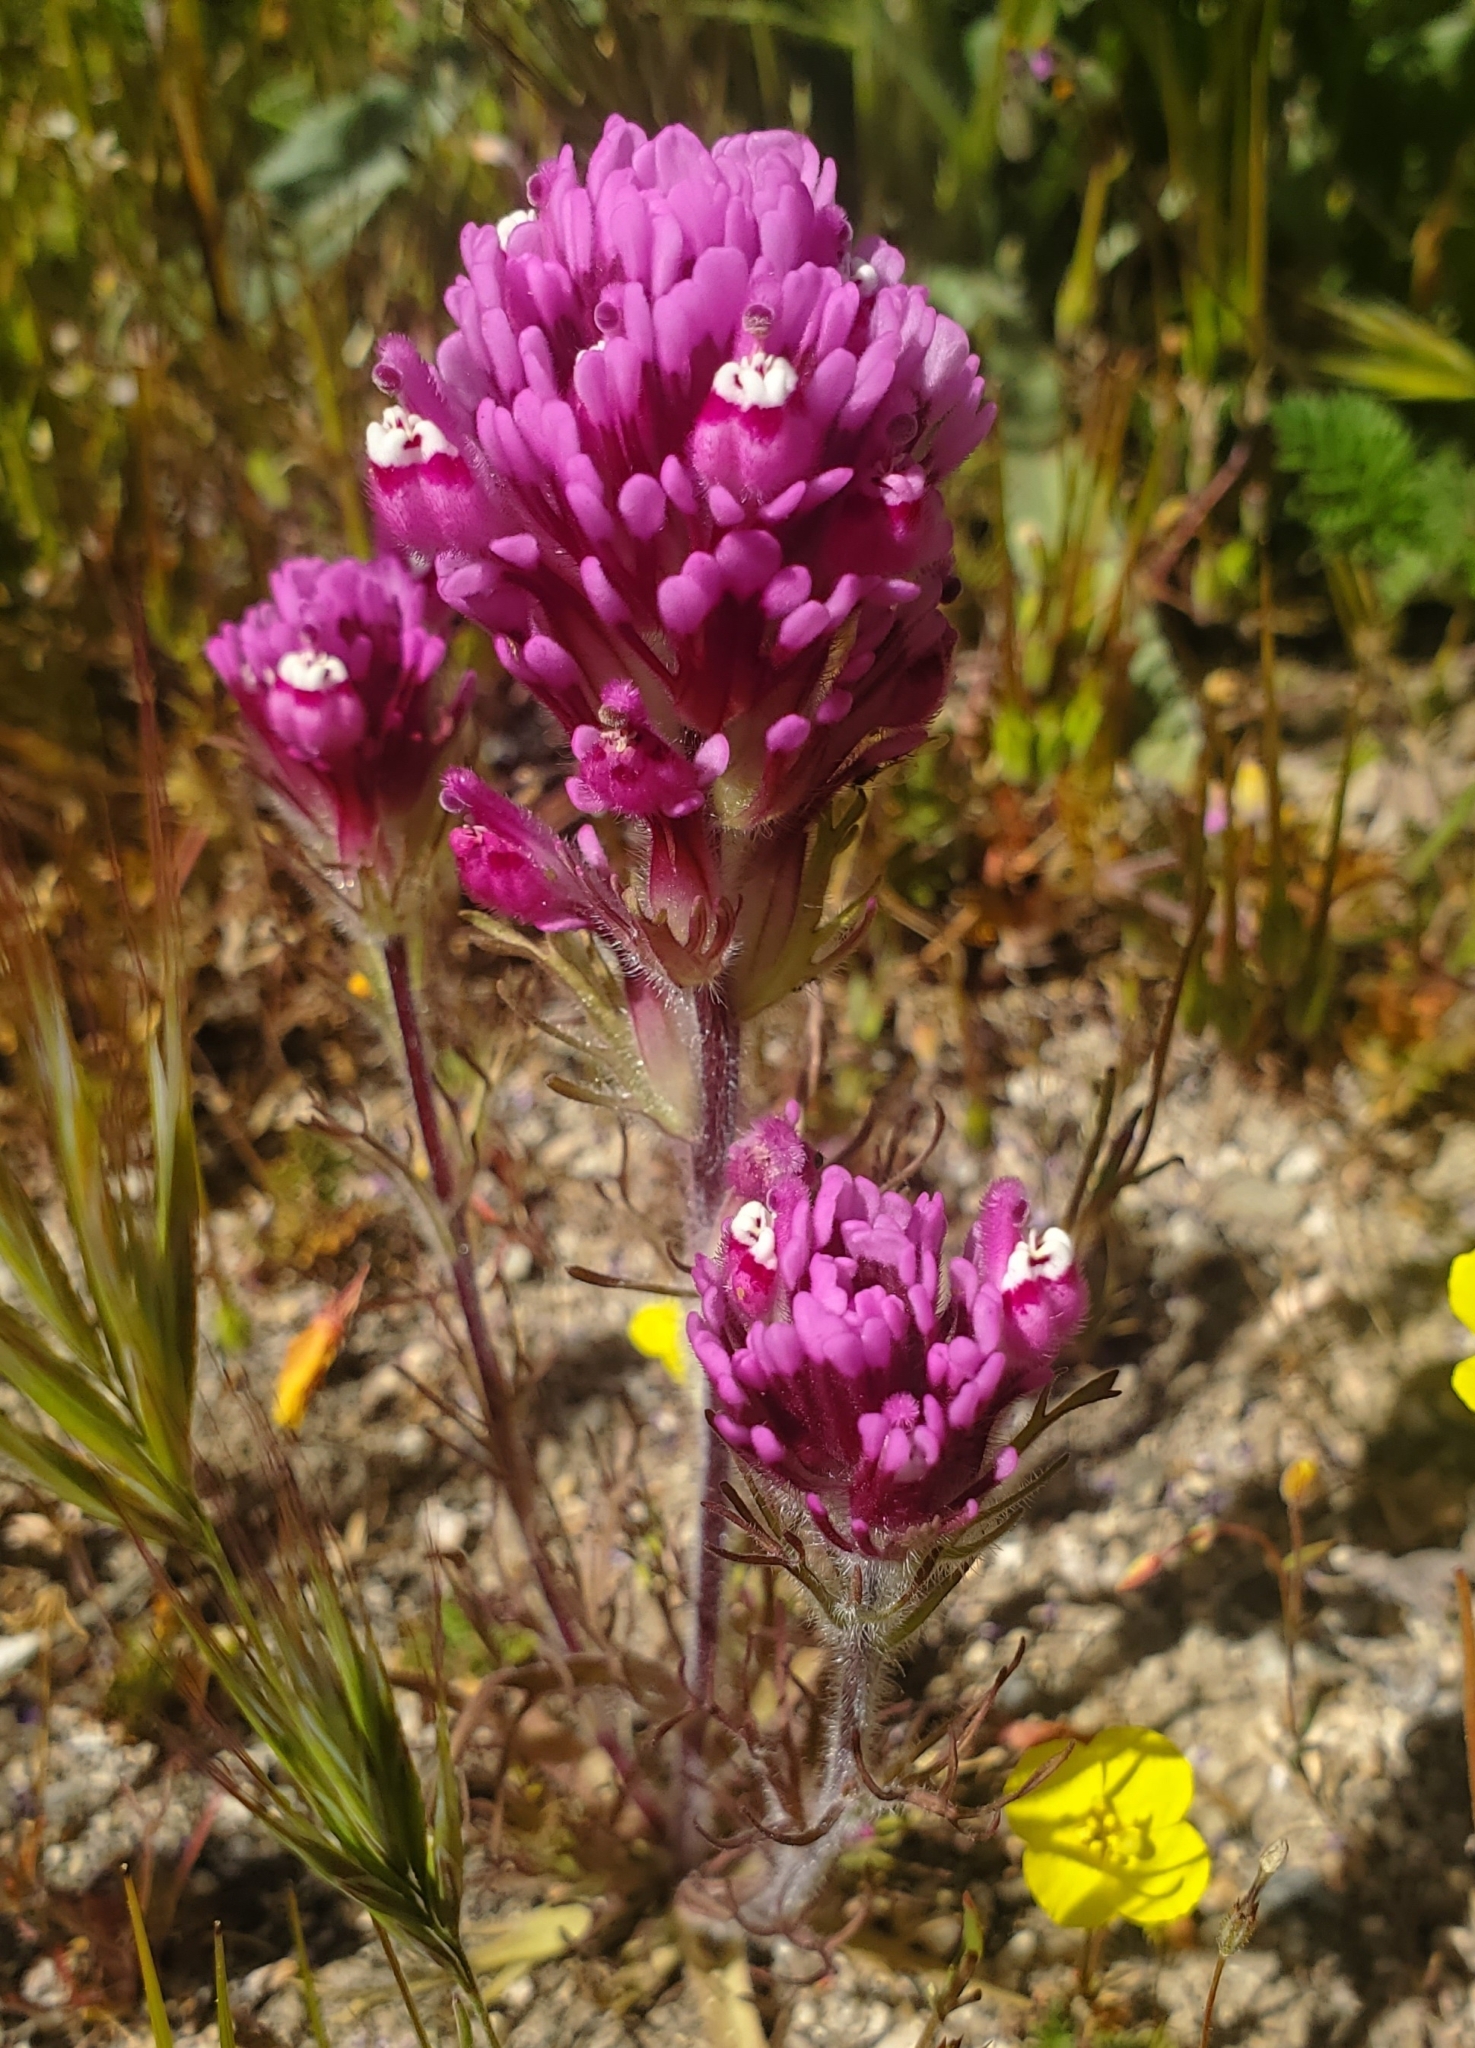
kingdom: Plantae
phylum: Tracheophyta
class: Magnoliopsida
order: Lamiales
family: Orobanchaceae
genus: Castilleja
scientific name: Castilleja exserta
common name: Purple owl-clover
